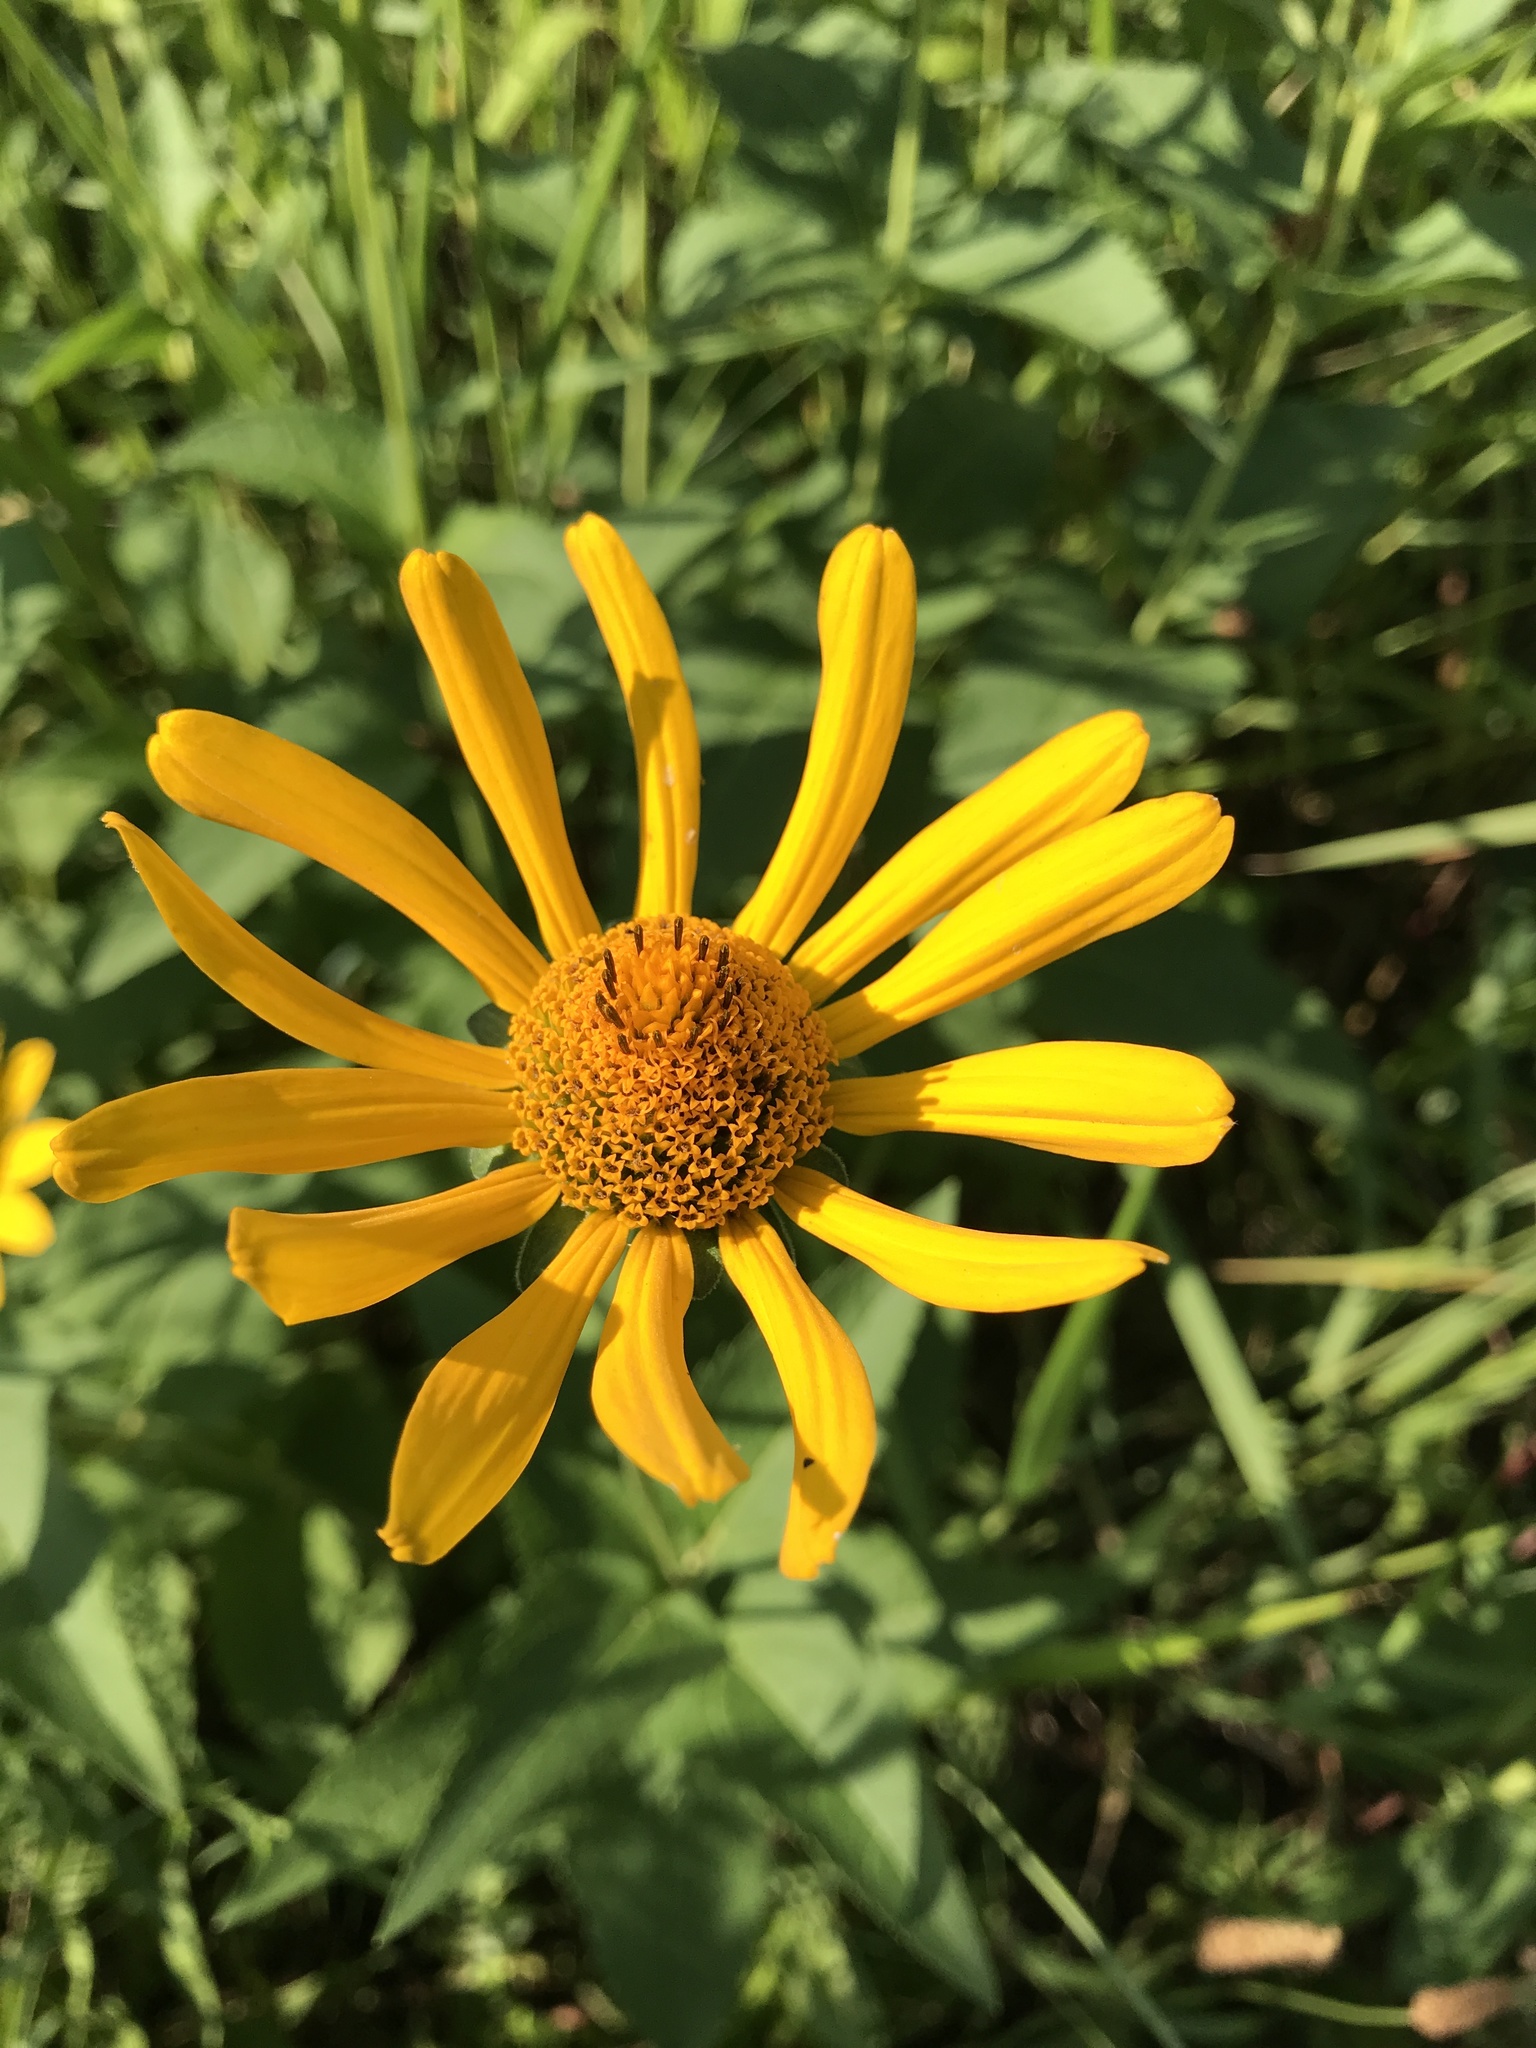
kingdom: Plantae
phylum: Tracheophyta
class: Magnoliopsida
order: Asterales
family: Asteraceae
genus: Heliopsis
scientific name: Heliopsis helianthoides
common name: False sunflower
